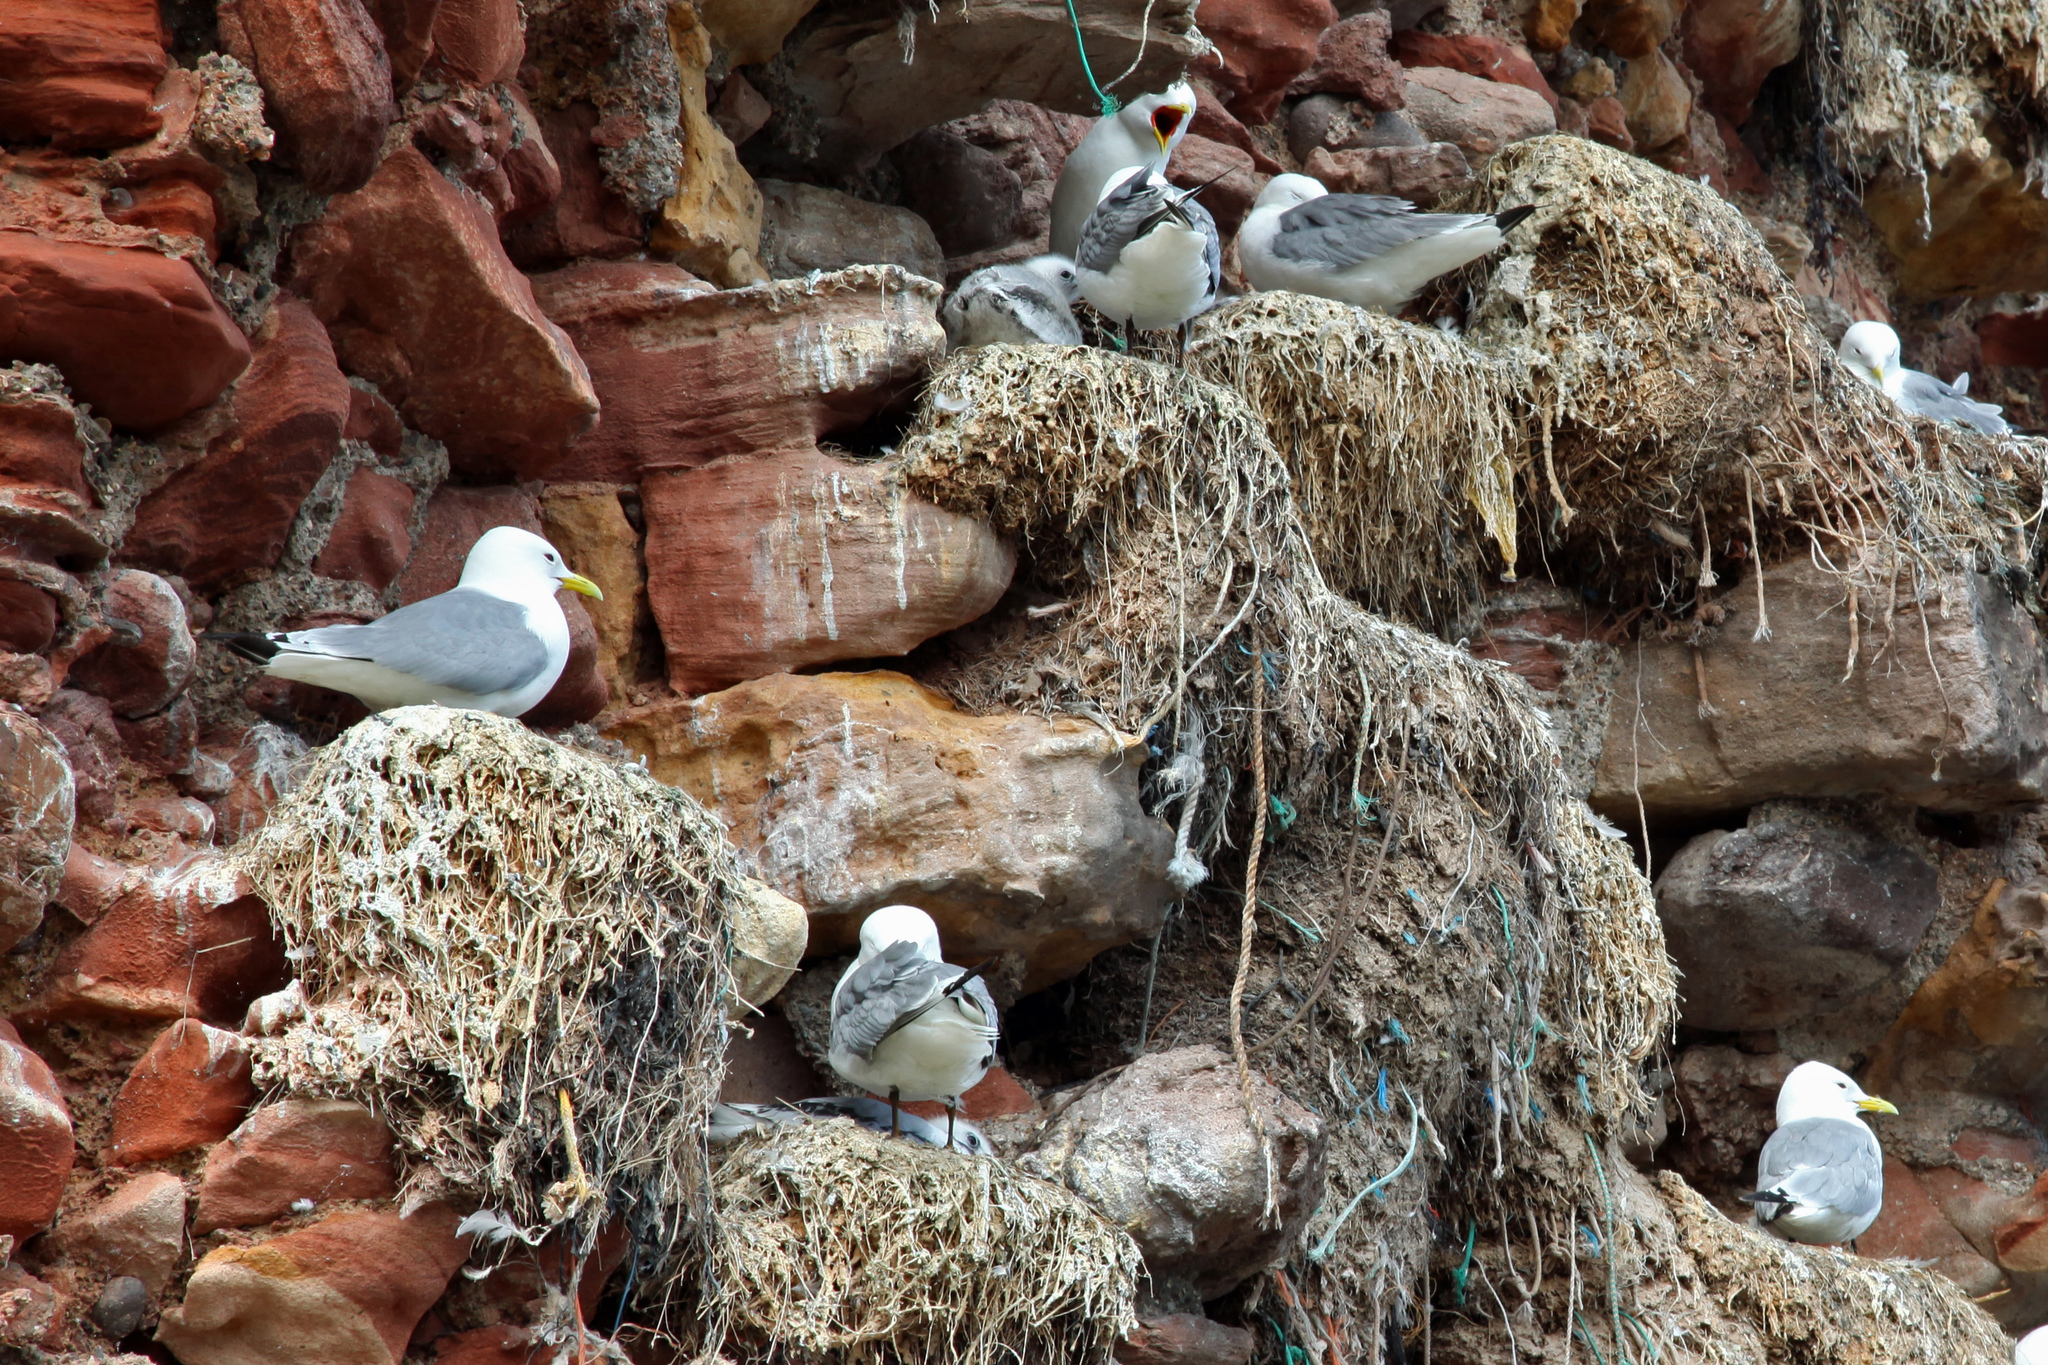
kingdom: Animalia
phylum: Chordata
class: Aves
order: Charadriiformes
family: Laridae
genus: Rissa
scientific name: Rissa tridactyla
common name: Black-legged kittiwake
